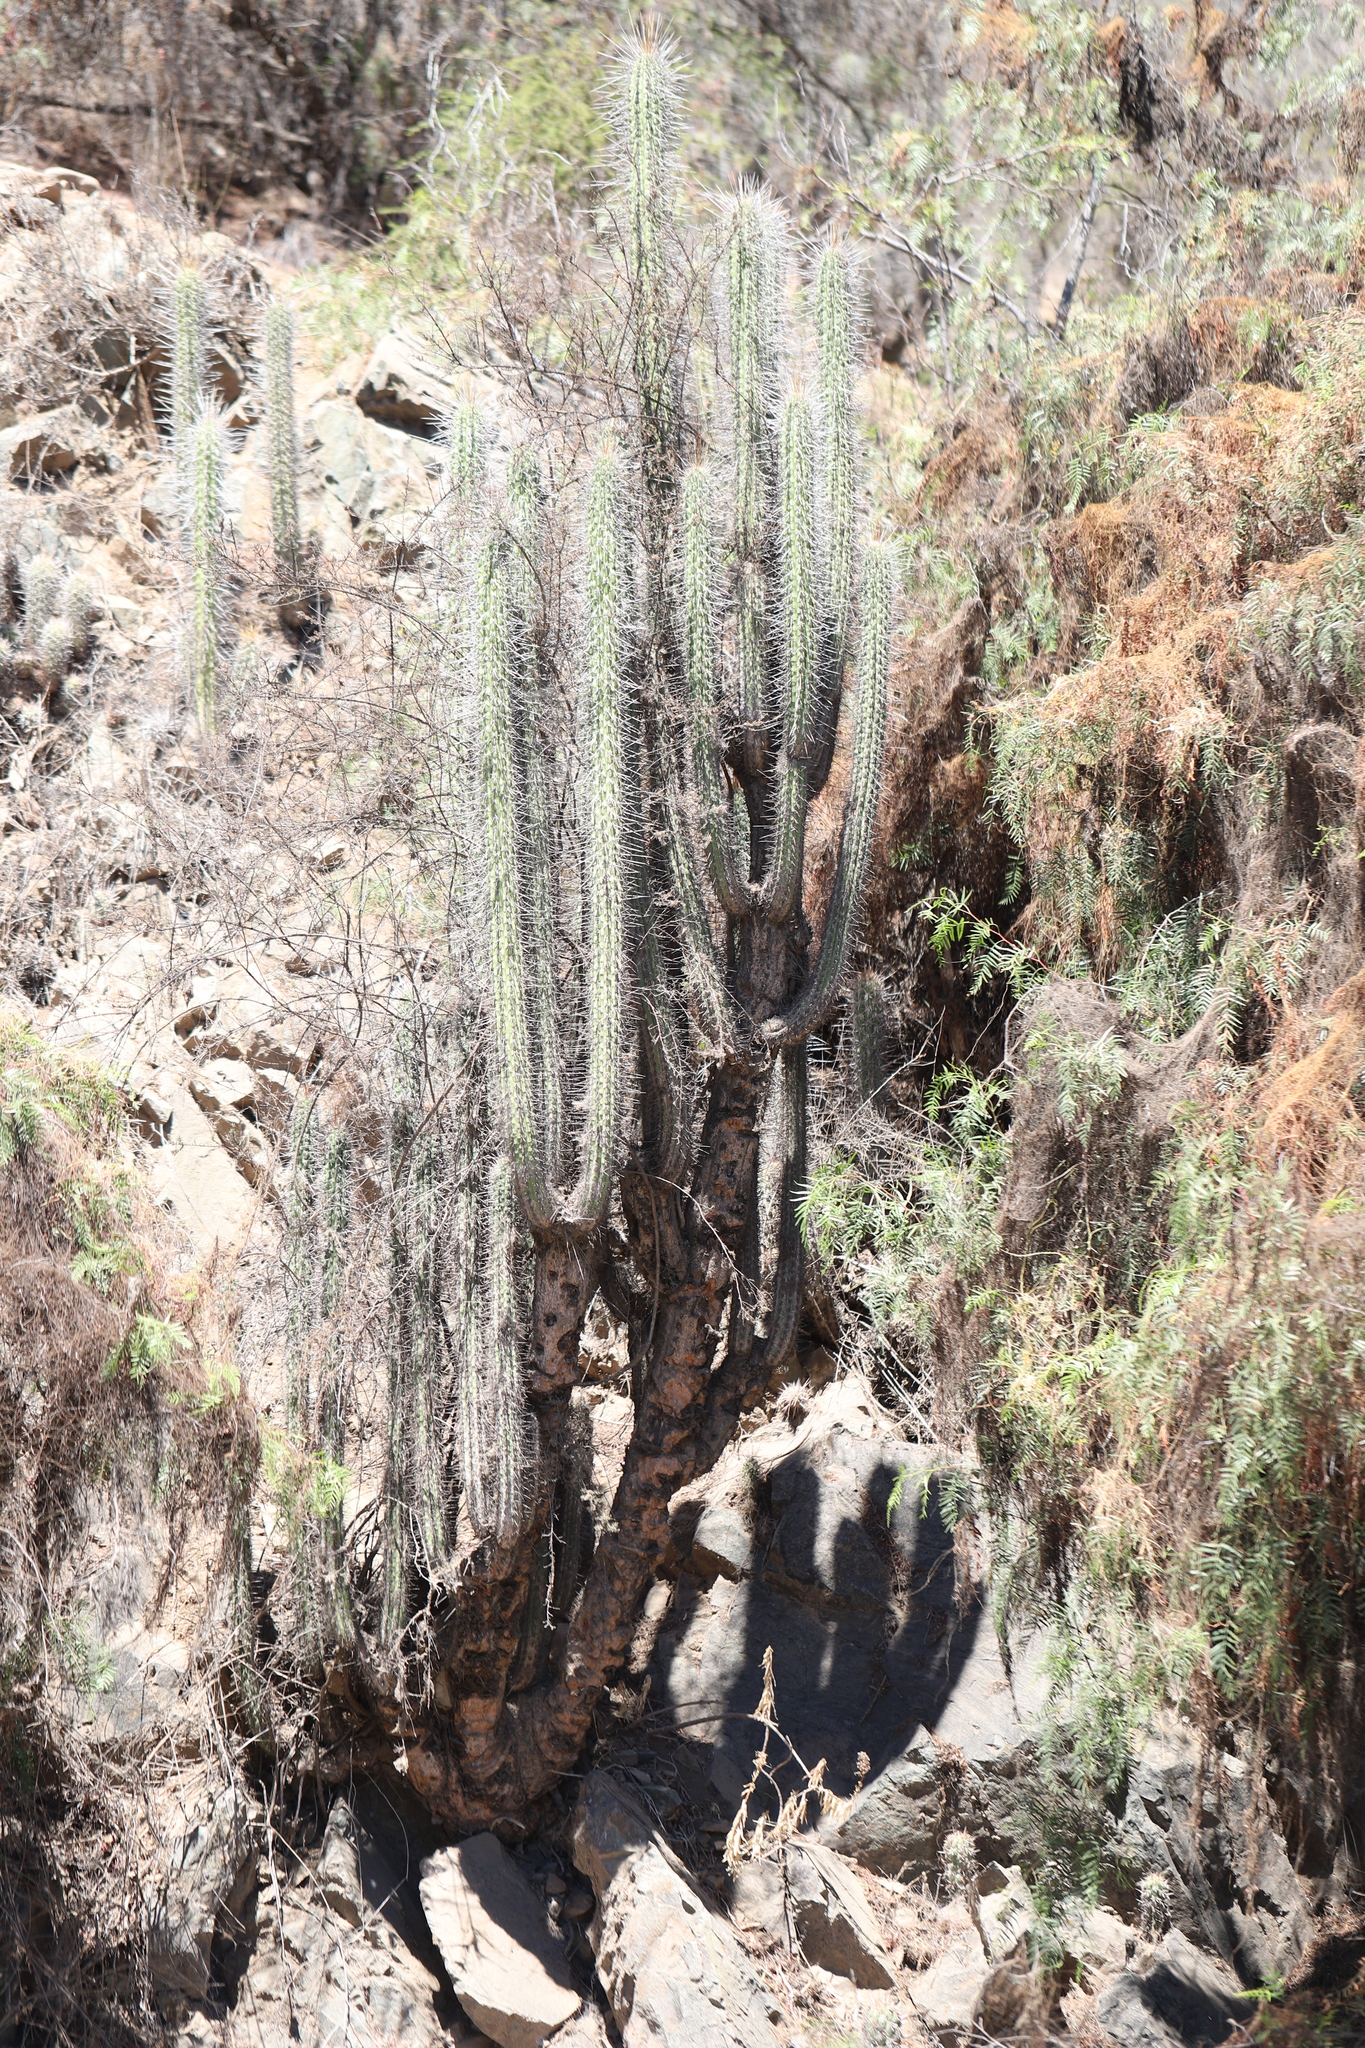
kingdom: Plantae
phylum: Tracheophyta
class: Magnoliopsida
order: Caryophyllales
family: Cactaceae
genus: Leucostele
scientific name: Leucostele chiloensis
